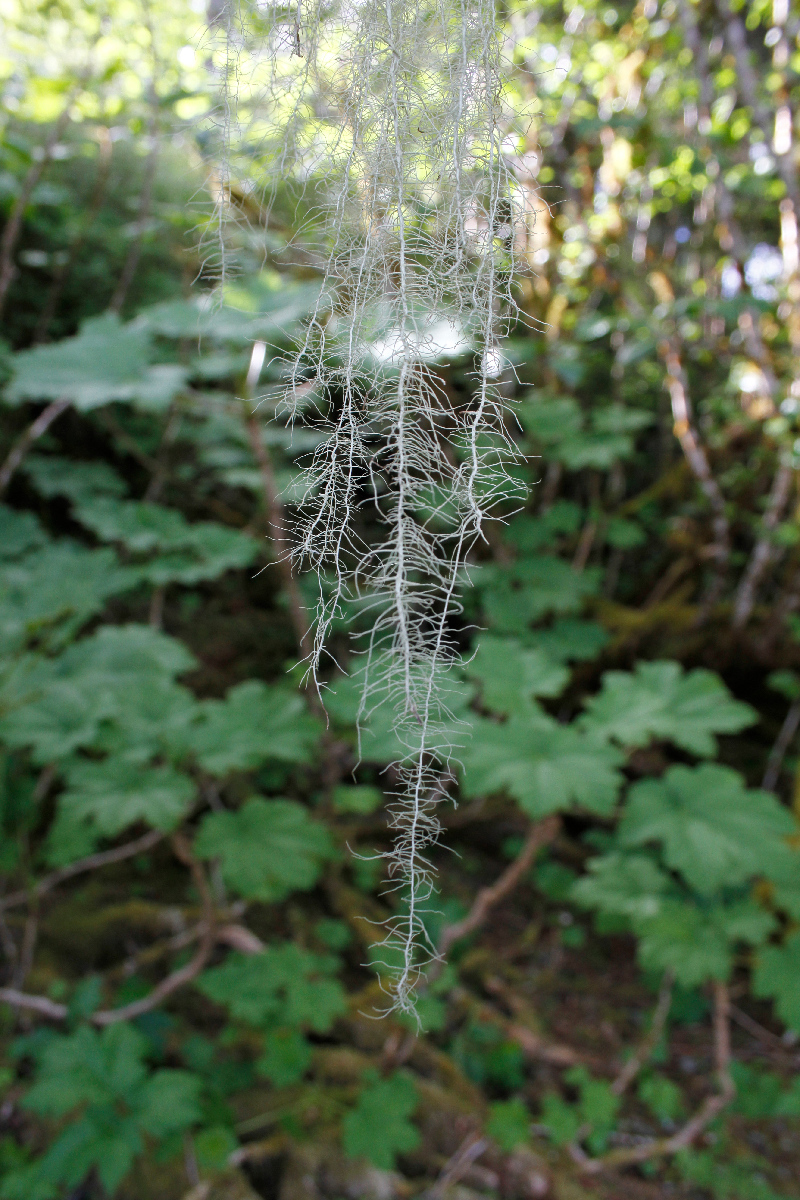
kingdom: Fungi
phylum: Ascomycota
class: Lecanoromycetes
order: Lecanorales
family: Parmeliaceae
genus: Dolichousnea
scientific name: Dolichousnea longissima
